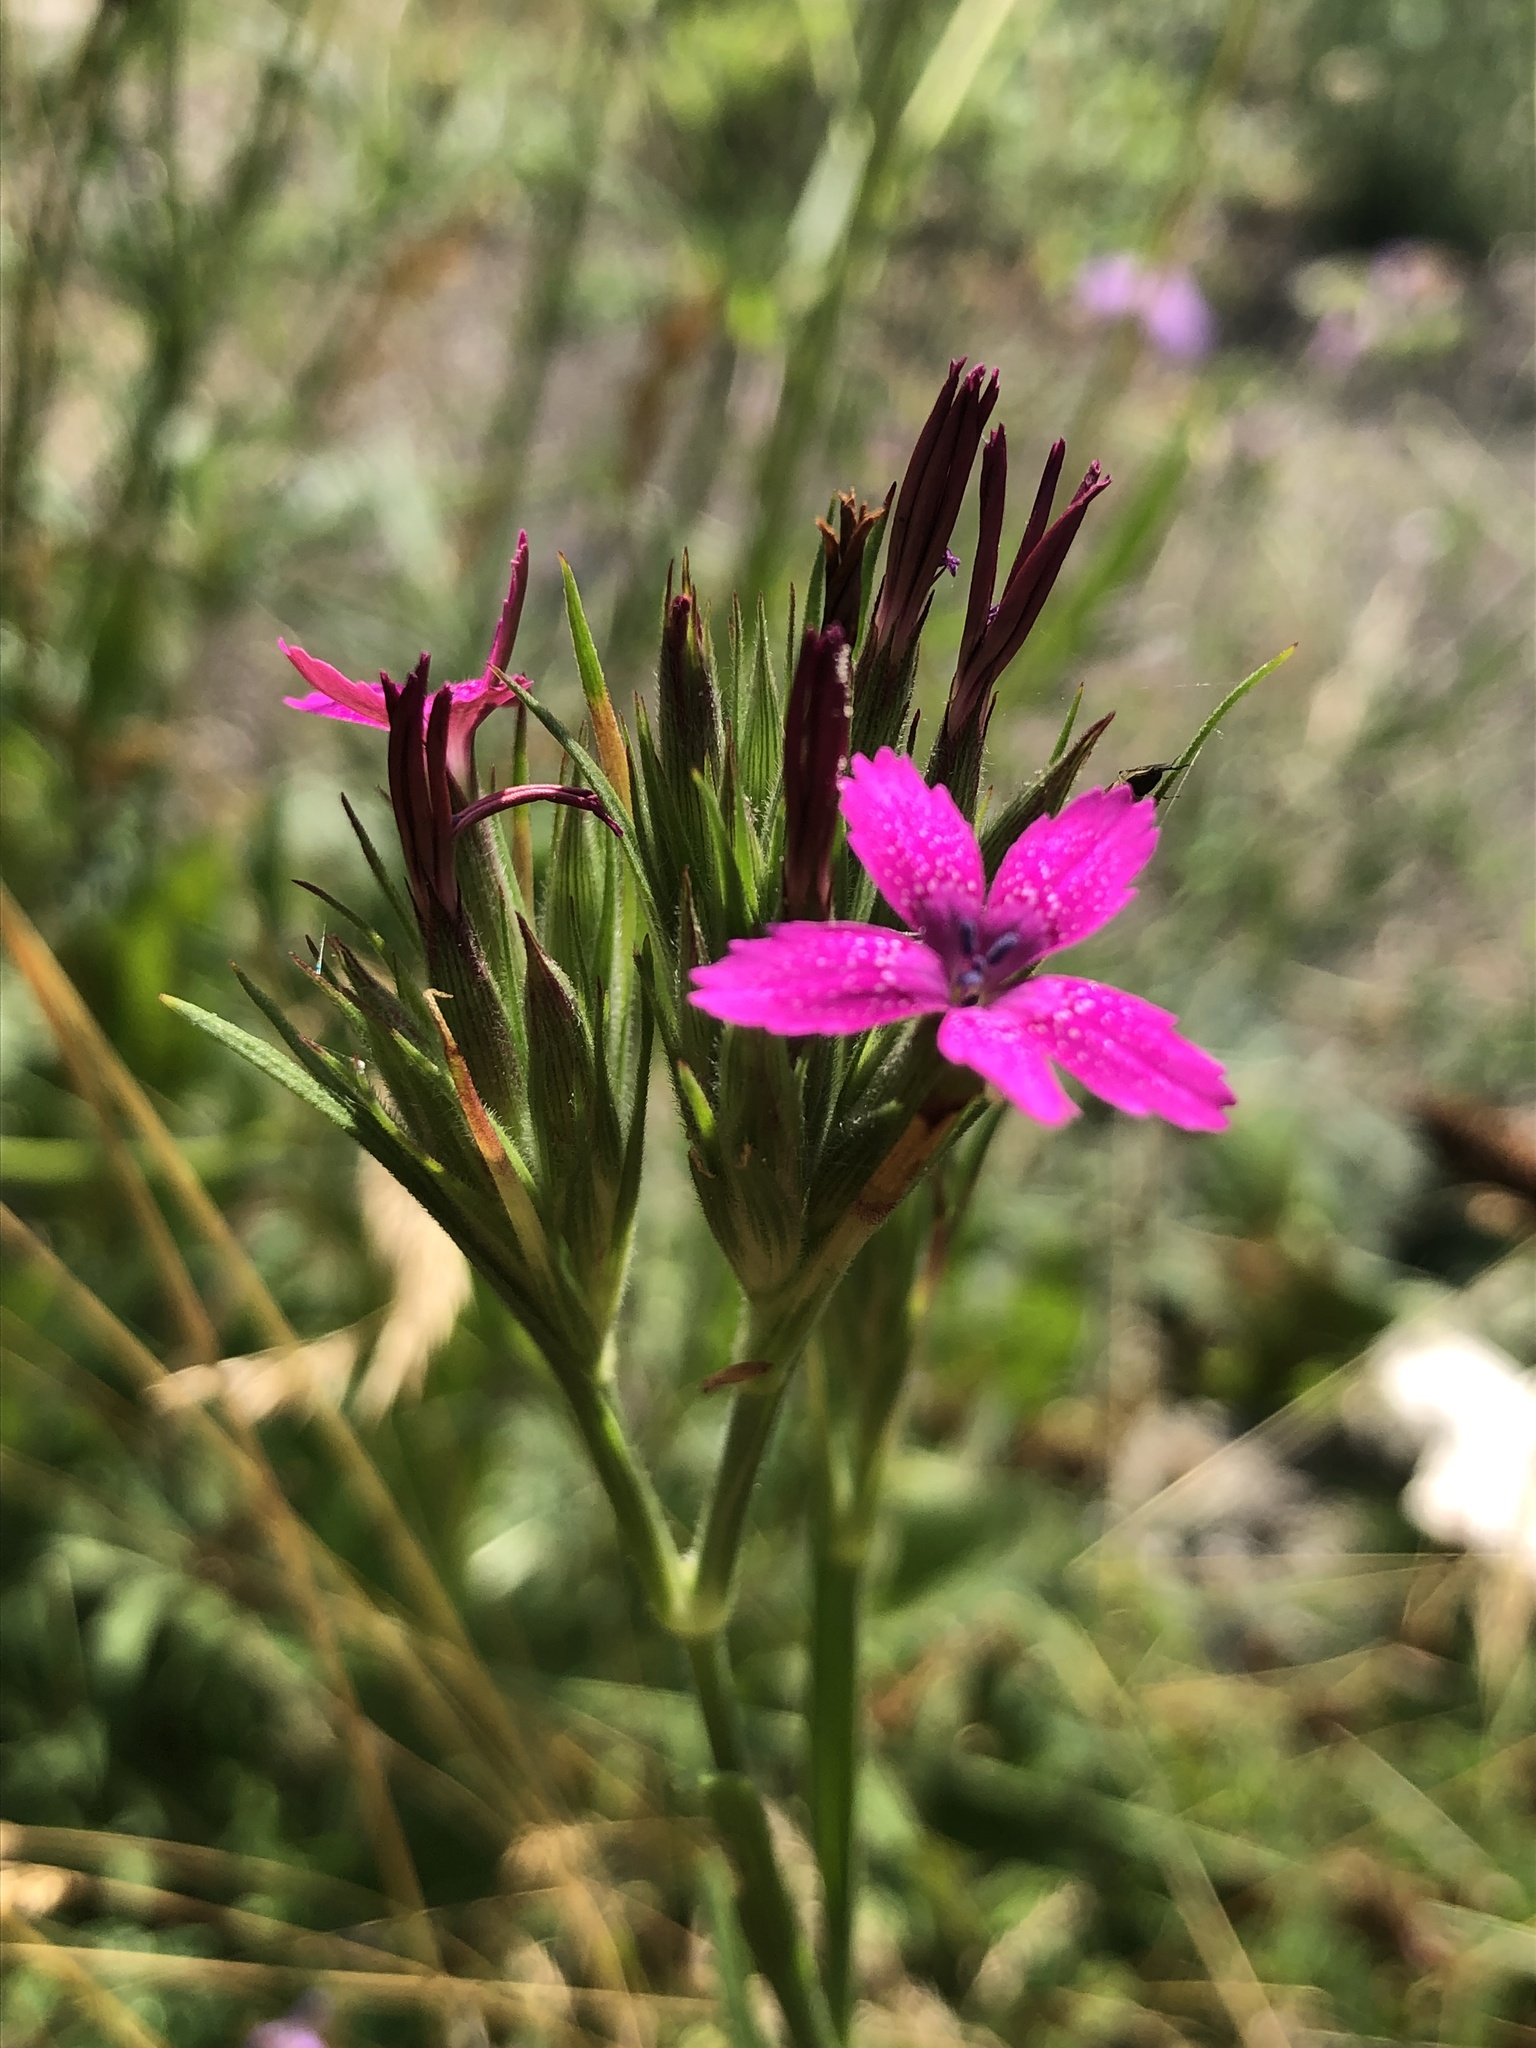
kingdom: Plantae
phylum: Tracheophyta
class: Magnoliopsida
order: Caryophyllales
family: Caryophyllaceae
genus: Dianthus
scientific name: Dianthus armeria
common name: Deptford pink
